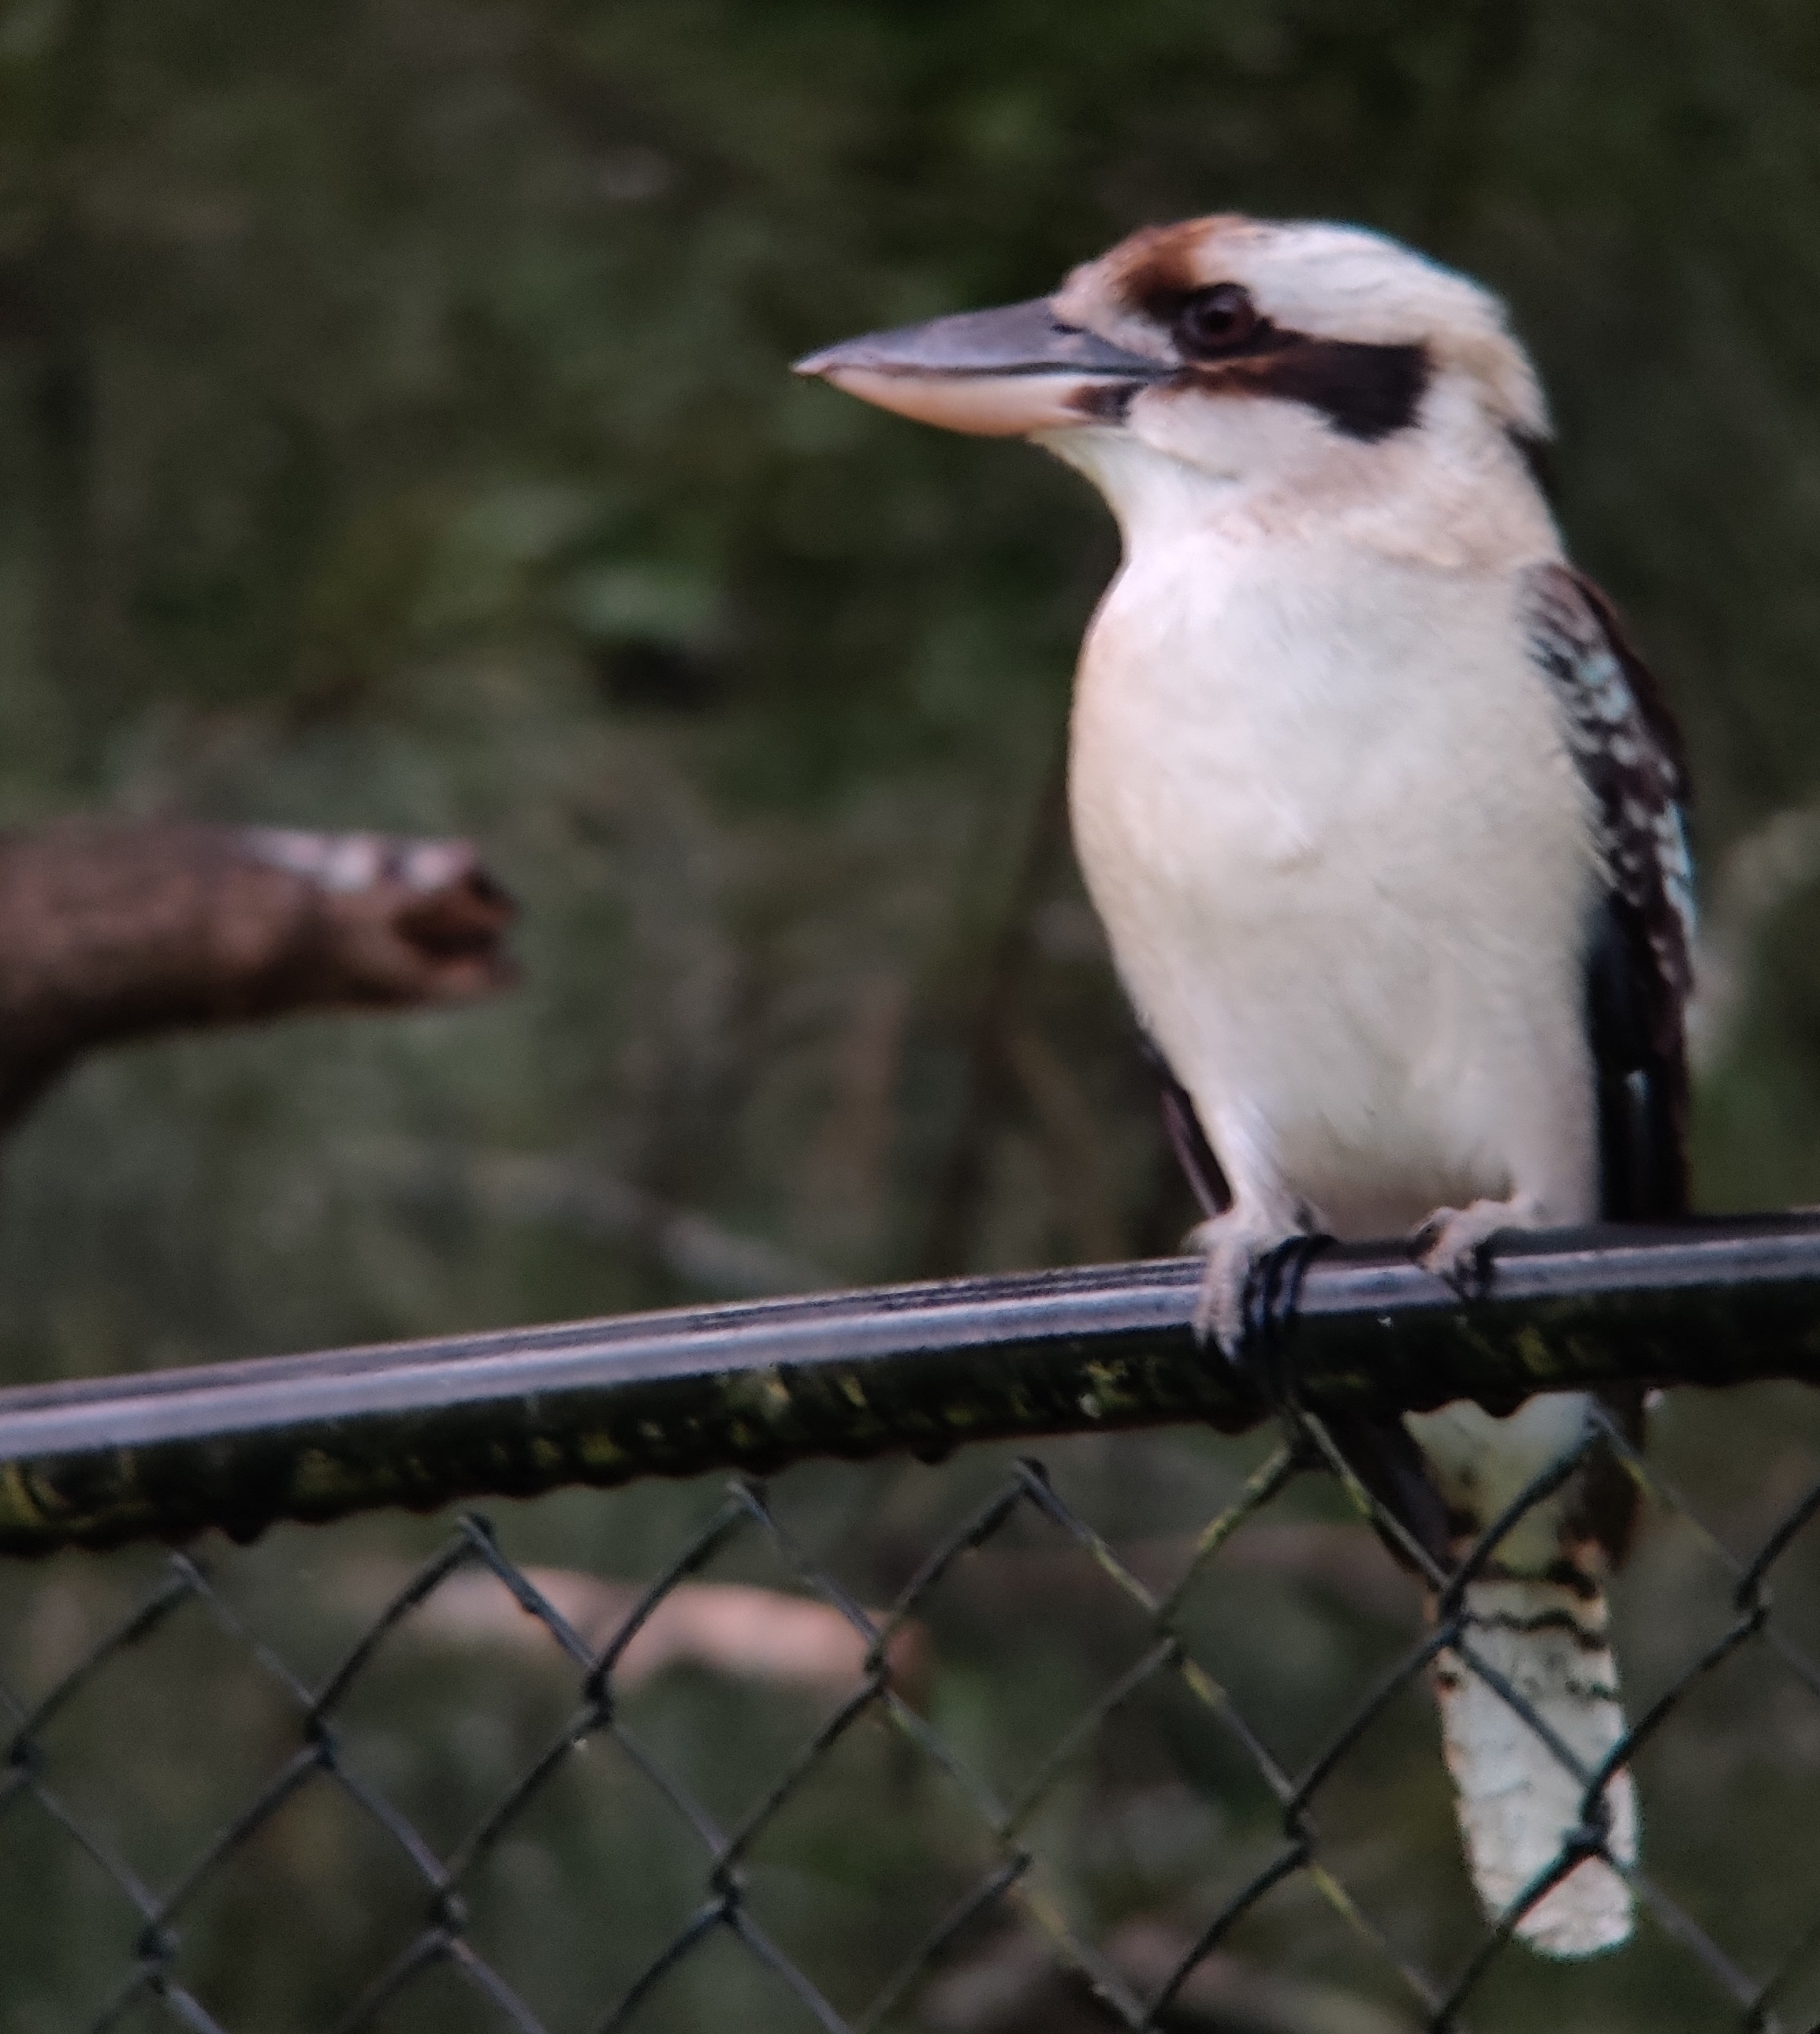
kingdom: Animalia
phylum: Chordata
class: Aves
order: Coraciiformes
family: Alcedinidae
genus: Dacelo
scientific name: Dacelo novaeguineae
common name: Laughing kookaburra
